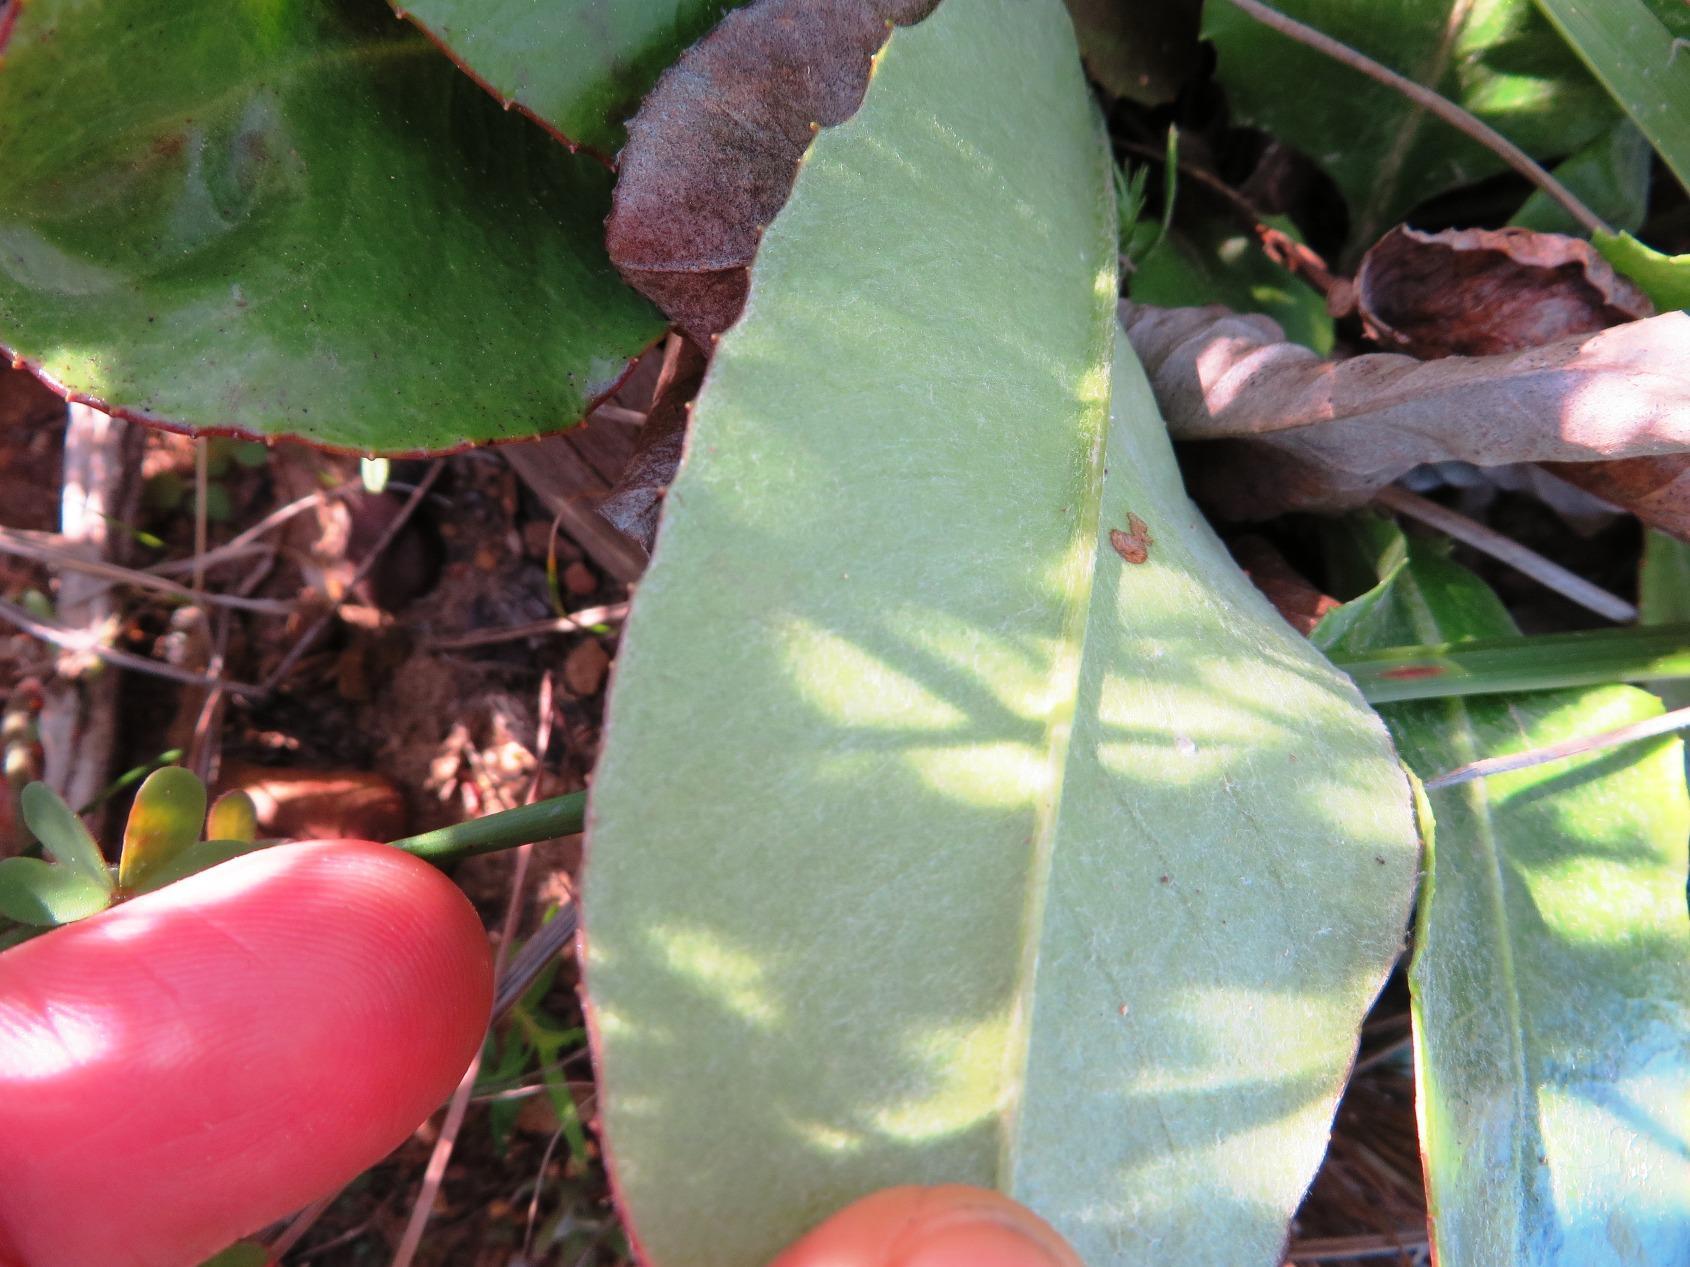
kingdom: Plantae
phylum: Tracheophyta
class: Magnoliopsida
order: Asterales
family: Asteraceae
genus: Gerbera
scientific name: Gerbera crocea
